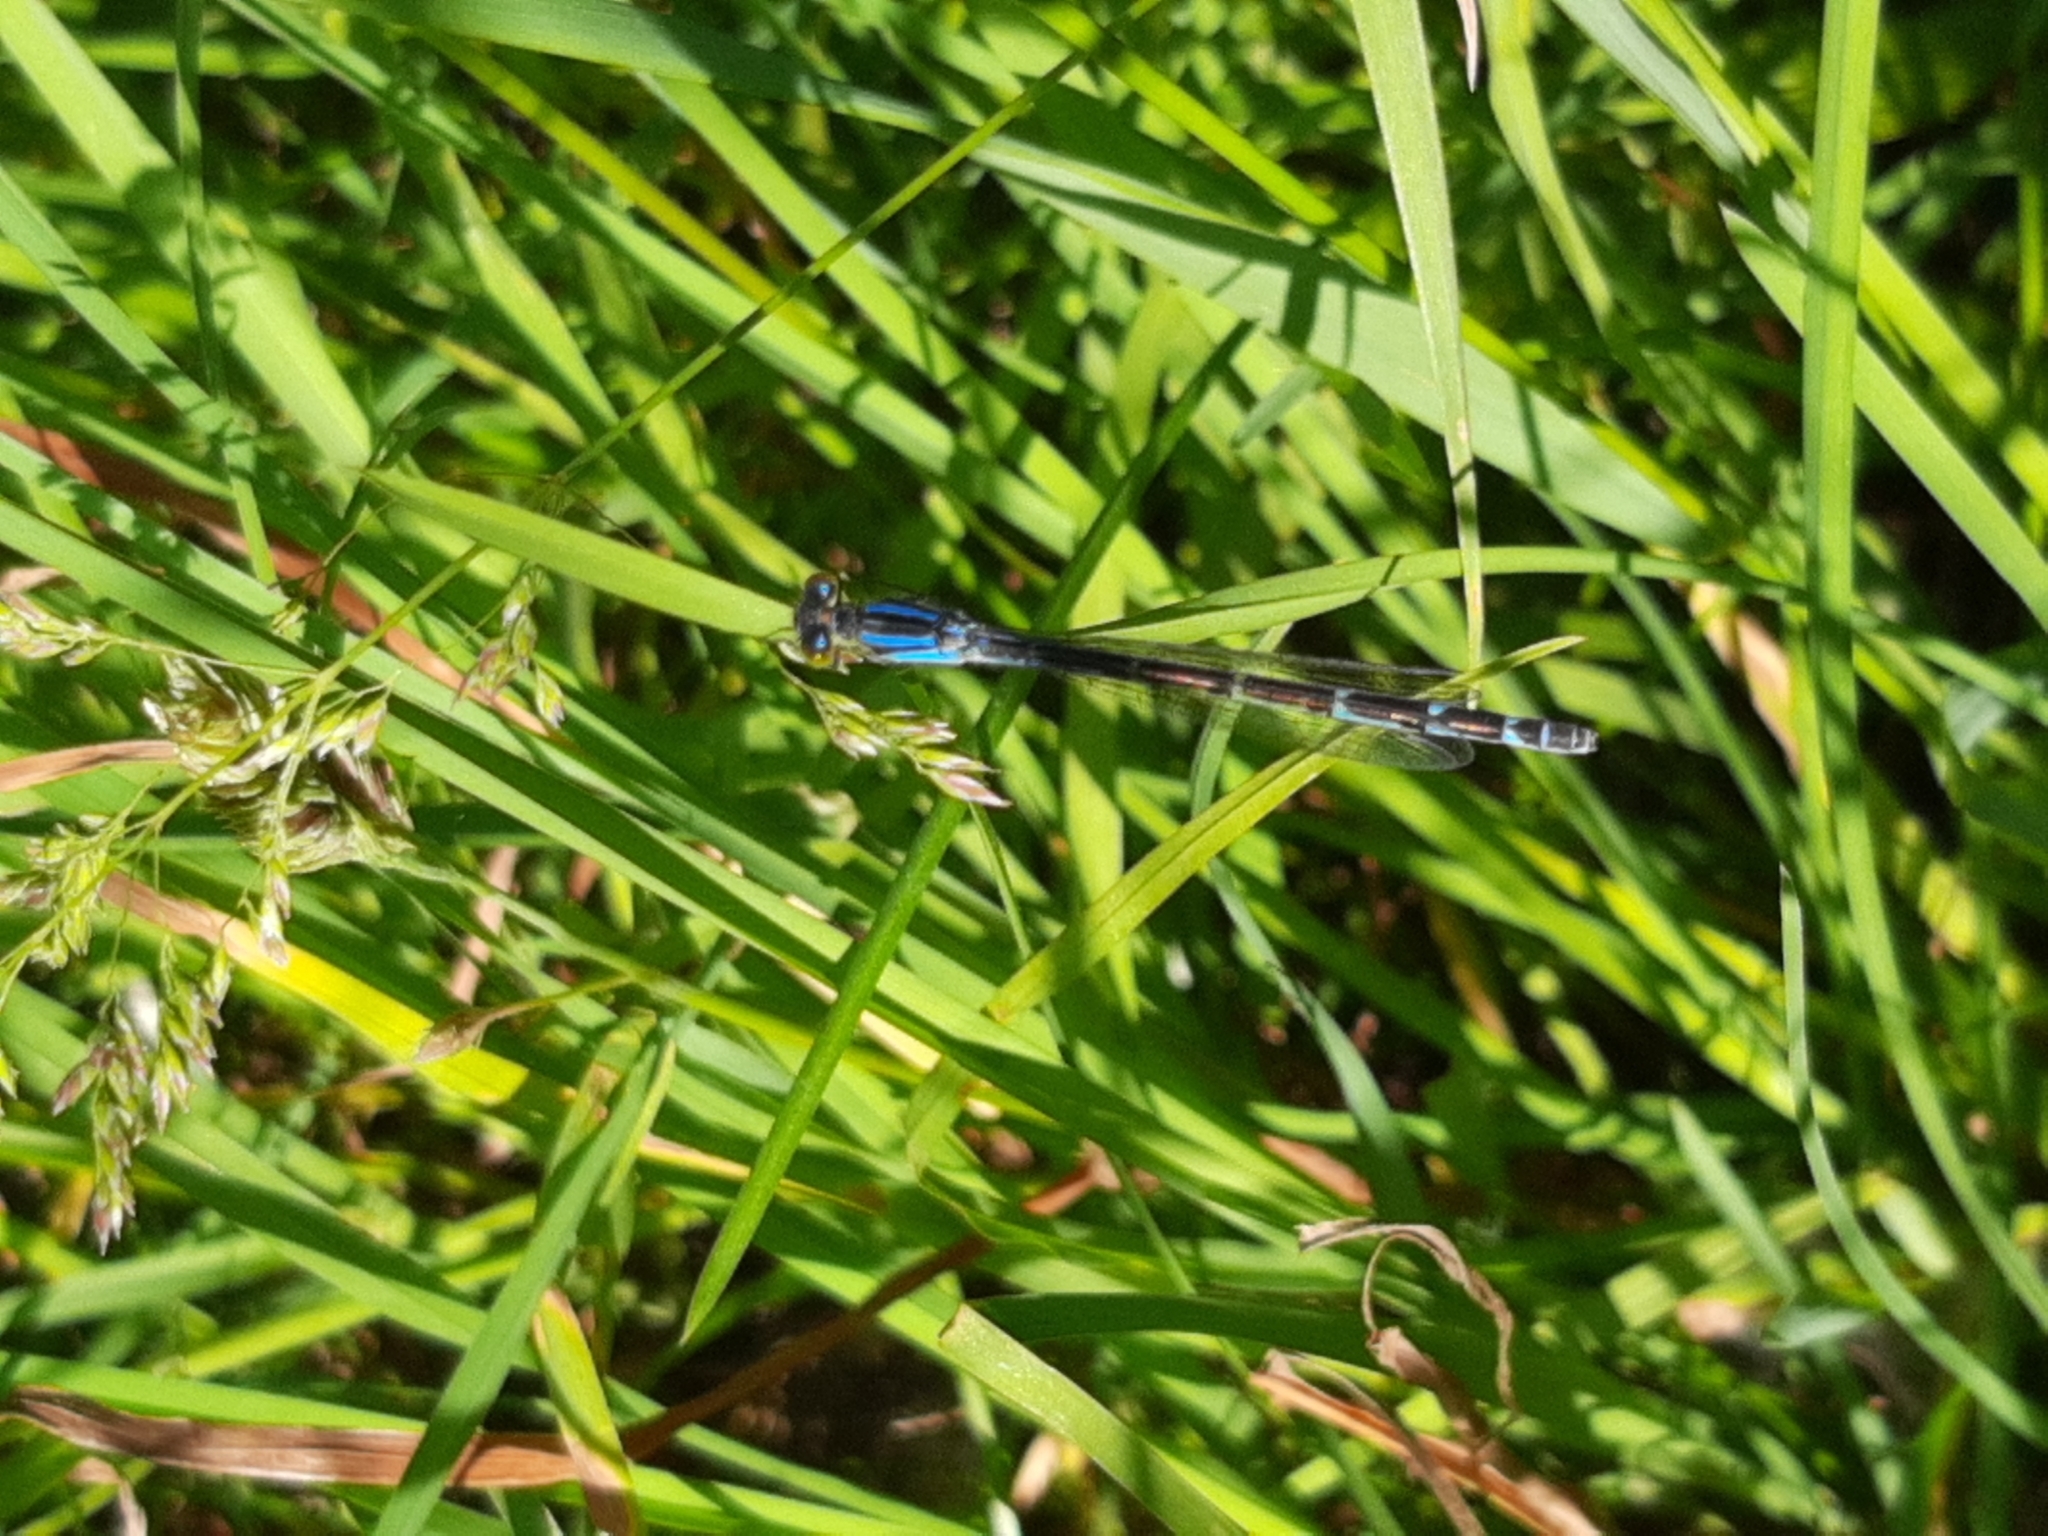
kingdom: Animalia
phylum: Arthropoda
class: Insecta
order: Odonata
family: Coenagrionidae
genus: Enallagma
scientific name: Enallagma cyathigerum
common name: Common blue damselfly
